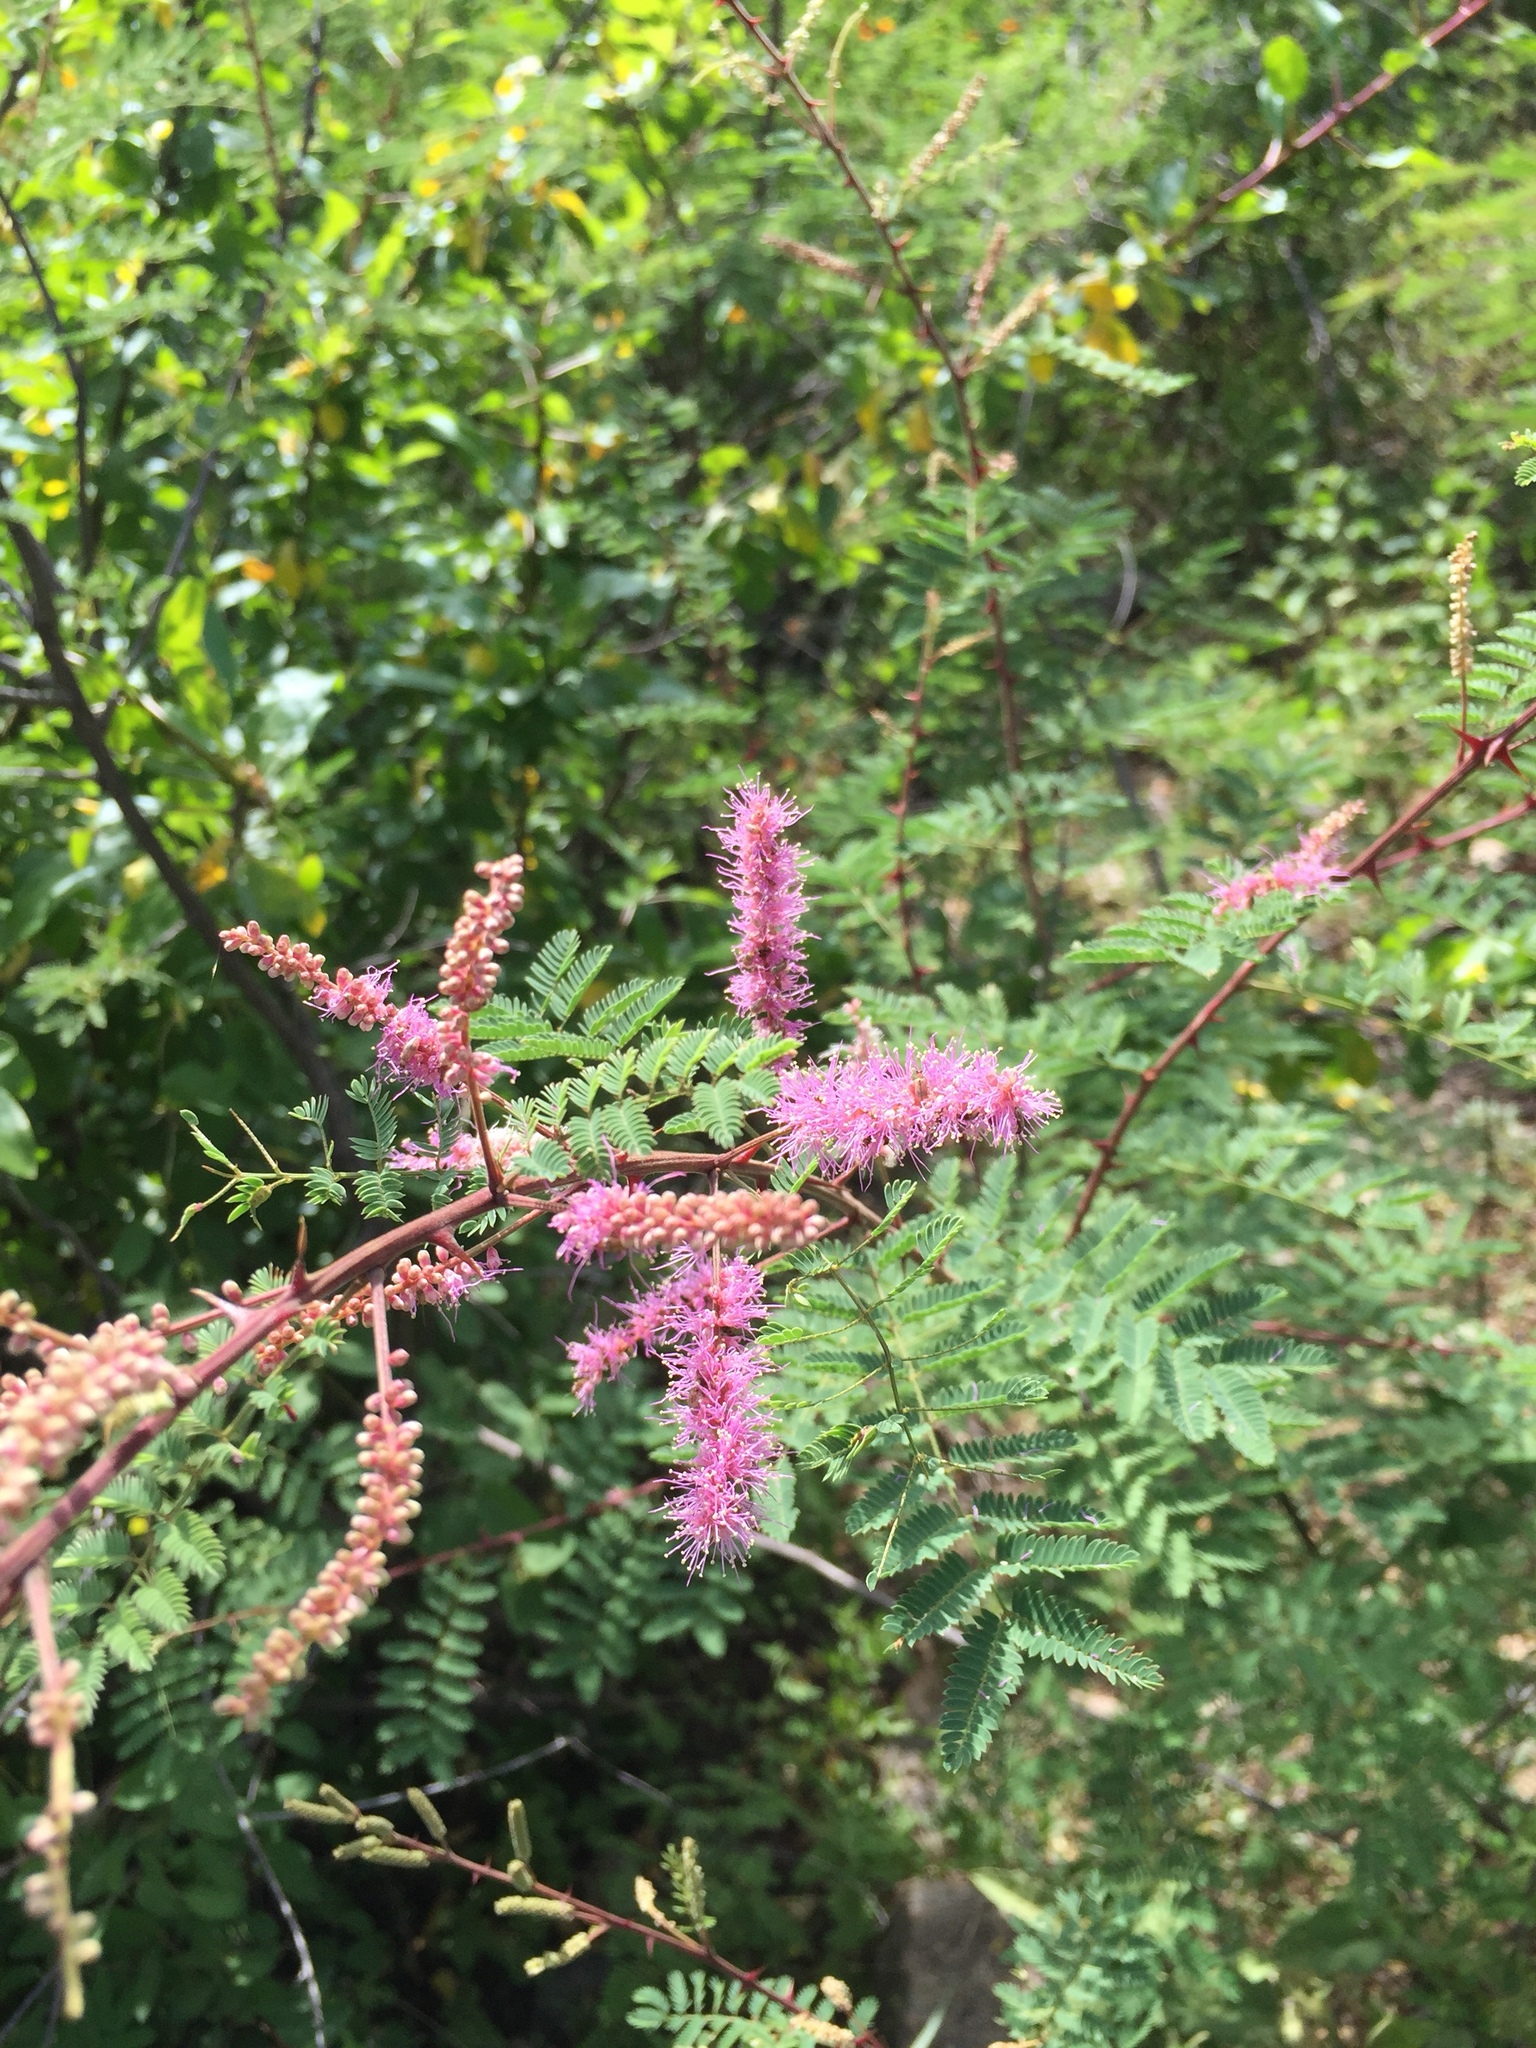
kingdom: Plantae
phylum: Tracheophyta
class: Magnoliopsida
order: Fabales
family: Fabaceae
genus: Mimosa
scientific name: Mimosa distachya
